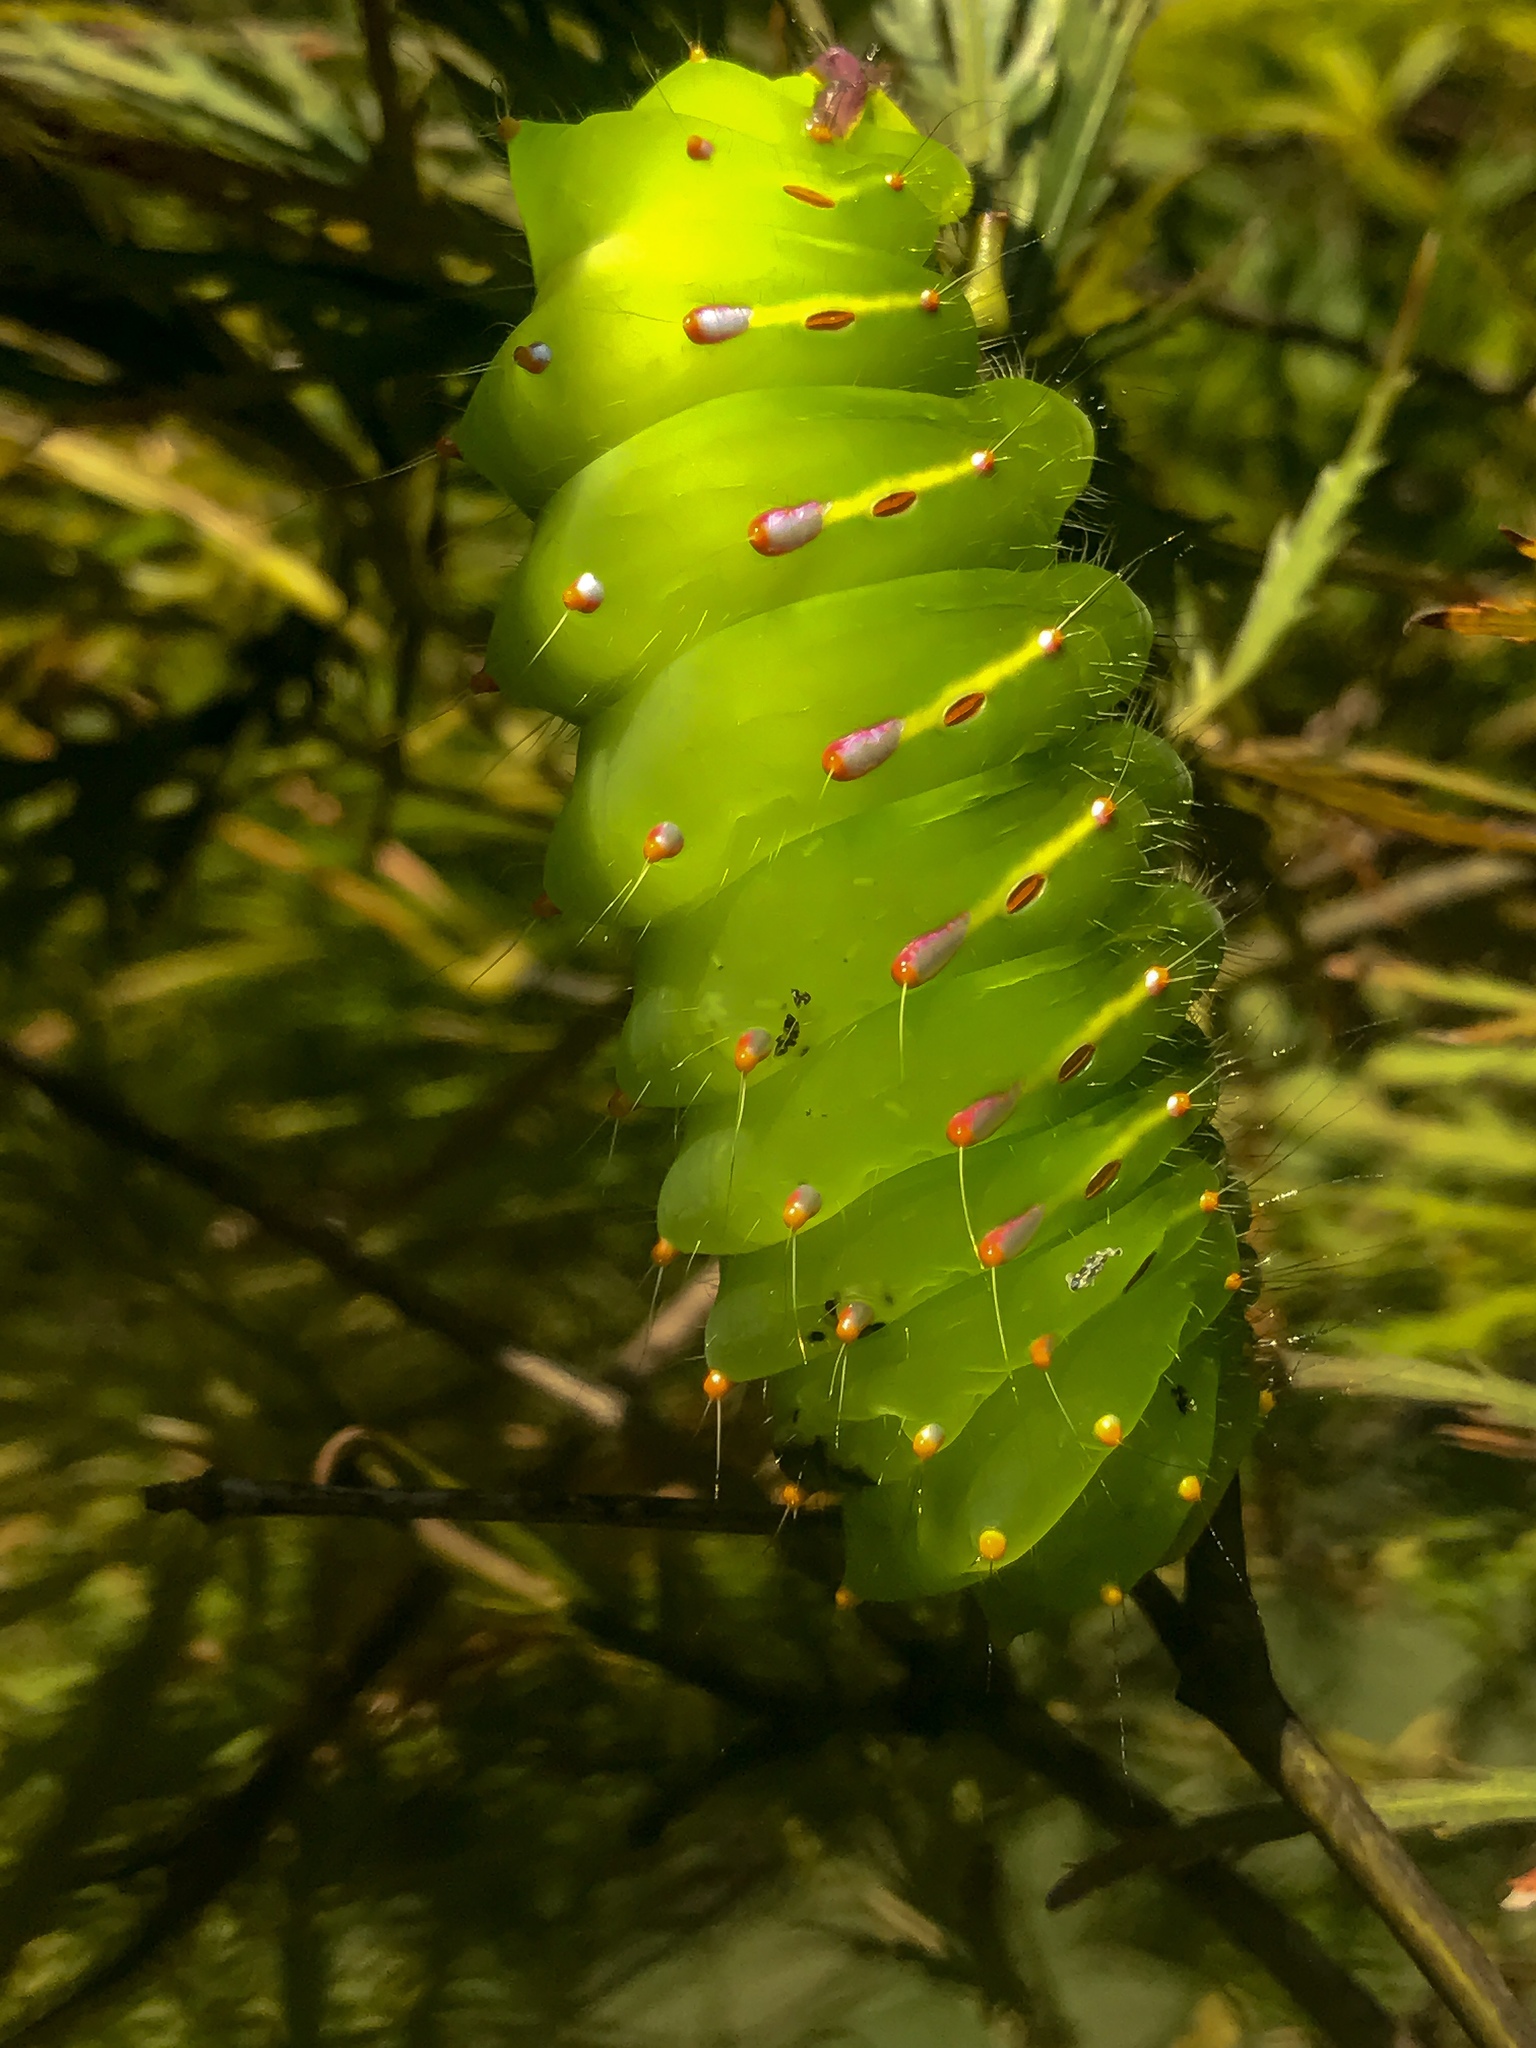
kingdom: Animalia
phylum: Arthropoda
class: Insecta
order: Lepidoptera
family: Saturniidae
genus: Antheraea
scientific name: Antheraea polyphemus
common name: Polyphemus moth
